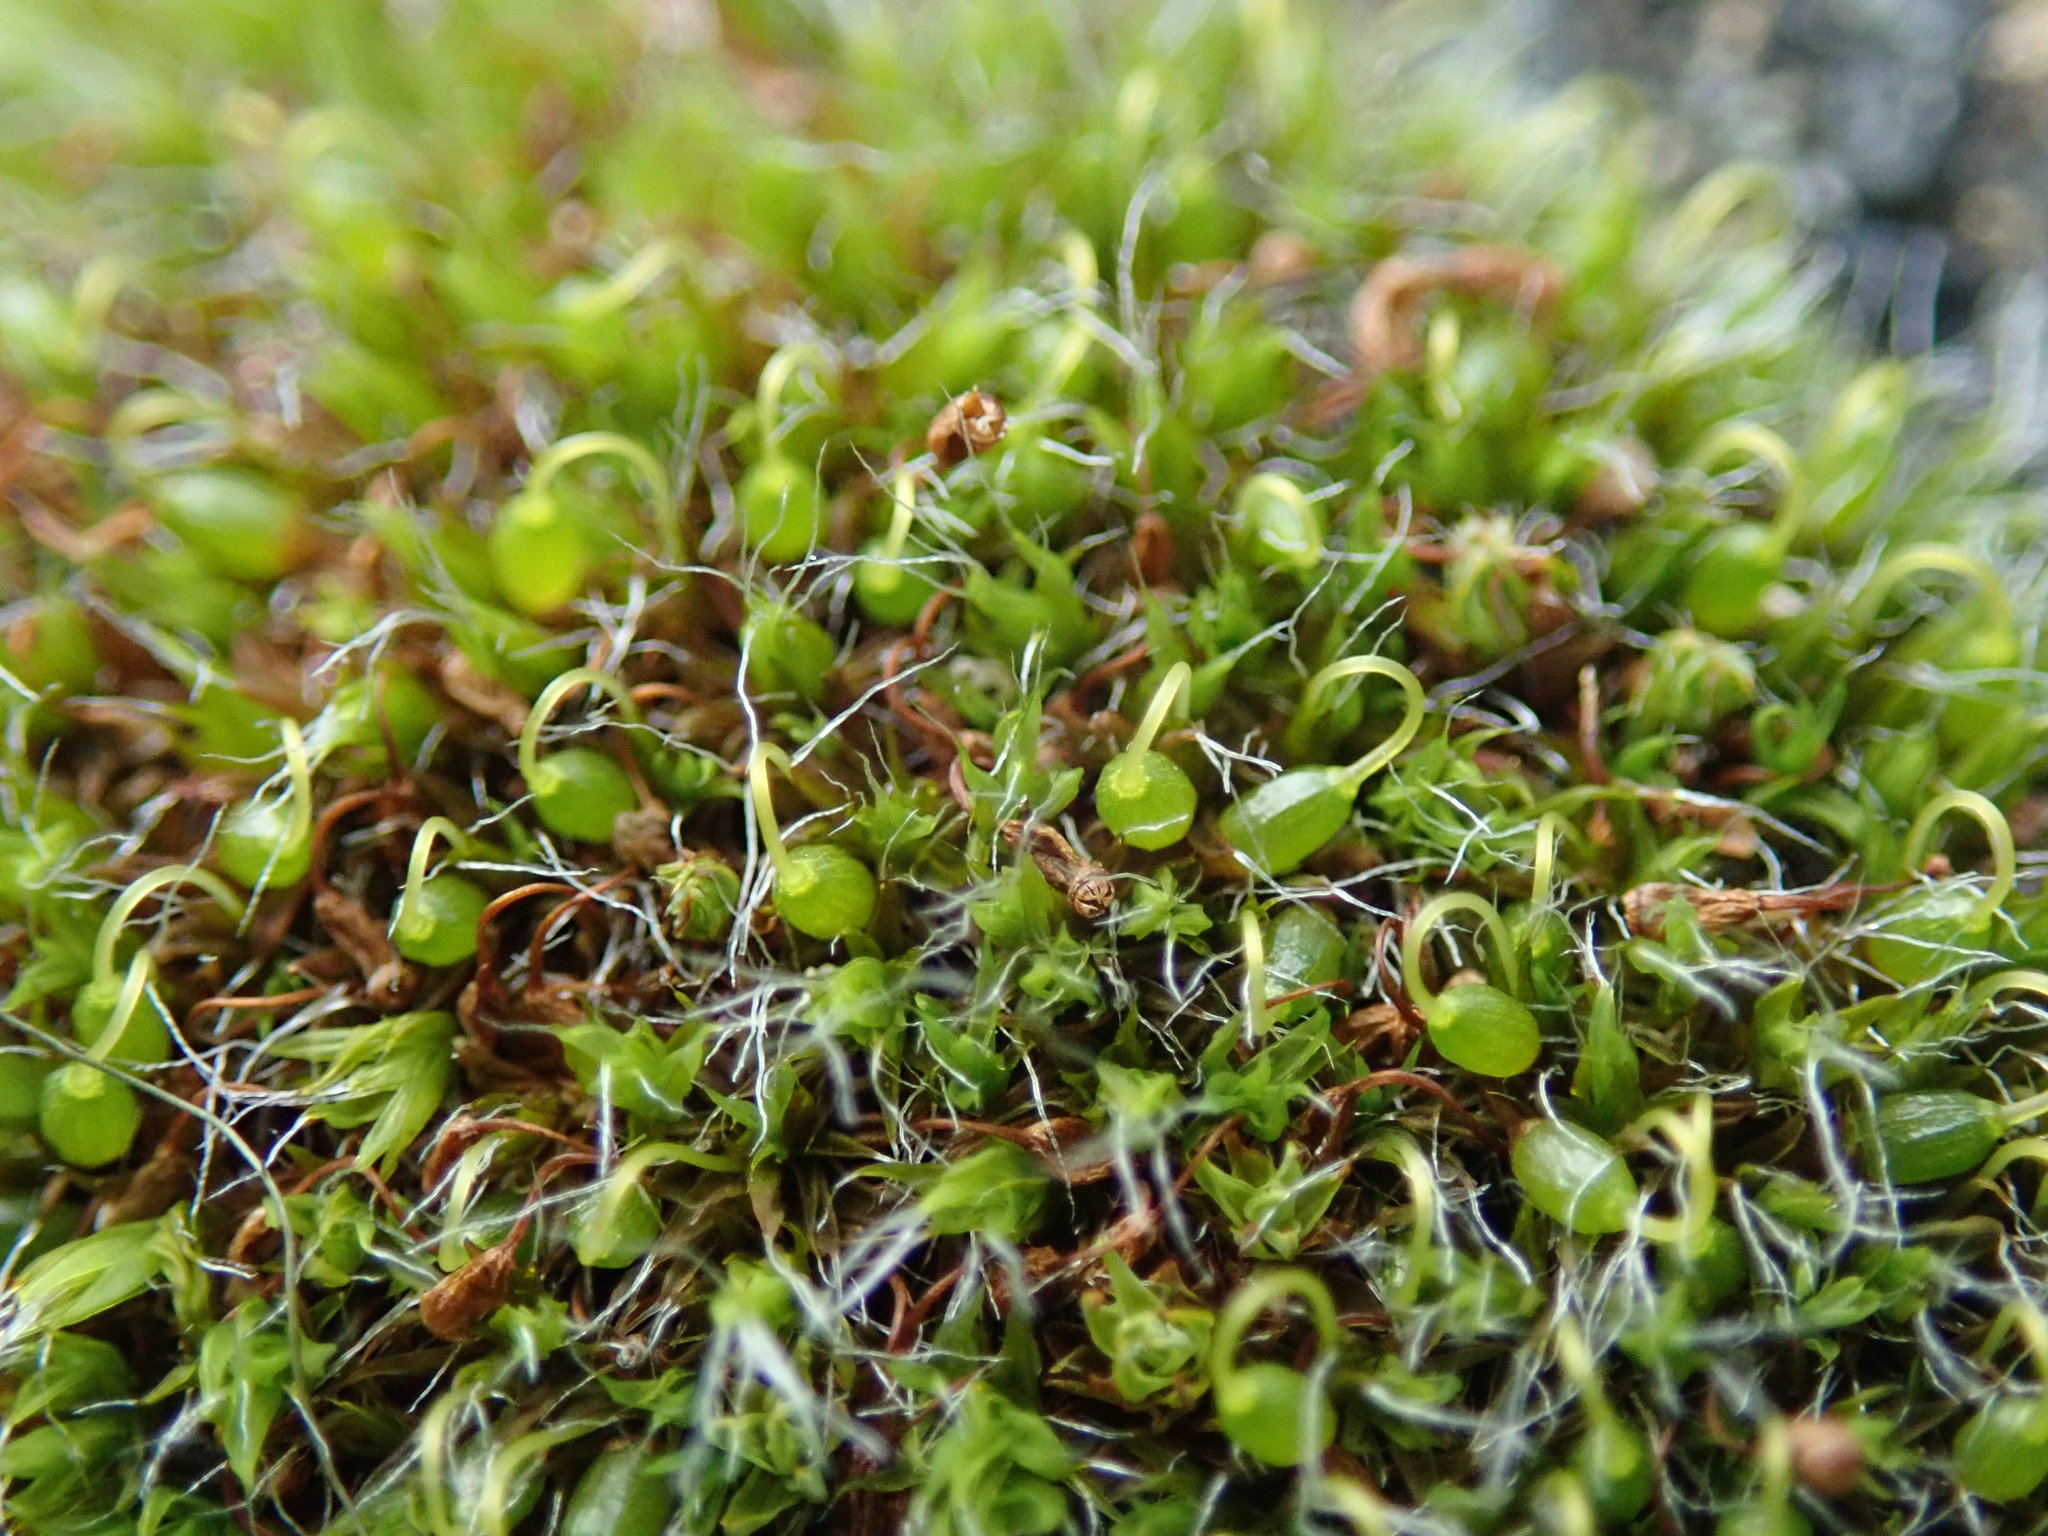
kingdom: Plantae
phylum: Bryophyta
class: Bryopsida
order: Grimmiales
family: Grimmiaceae
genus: Grimmia
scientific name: Grimmia pulvinata
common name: Grey-cushioned grimmia
